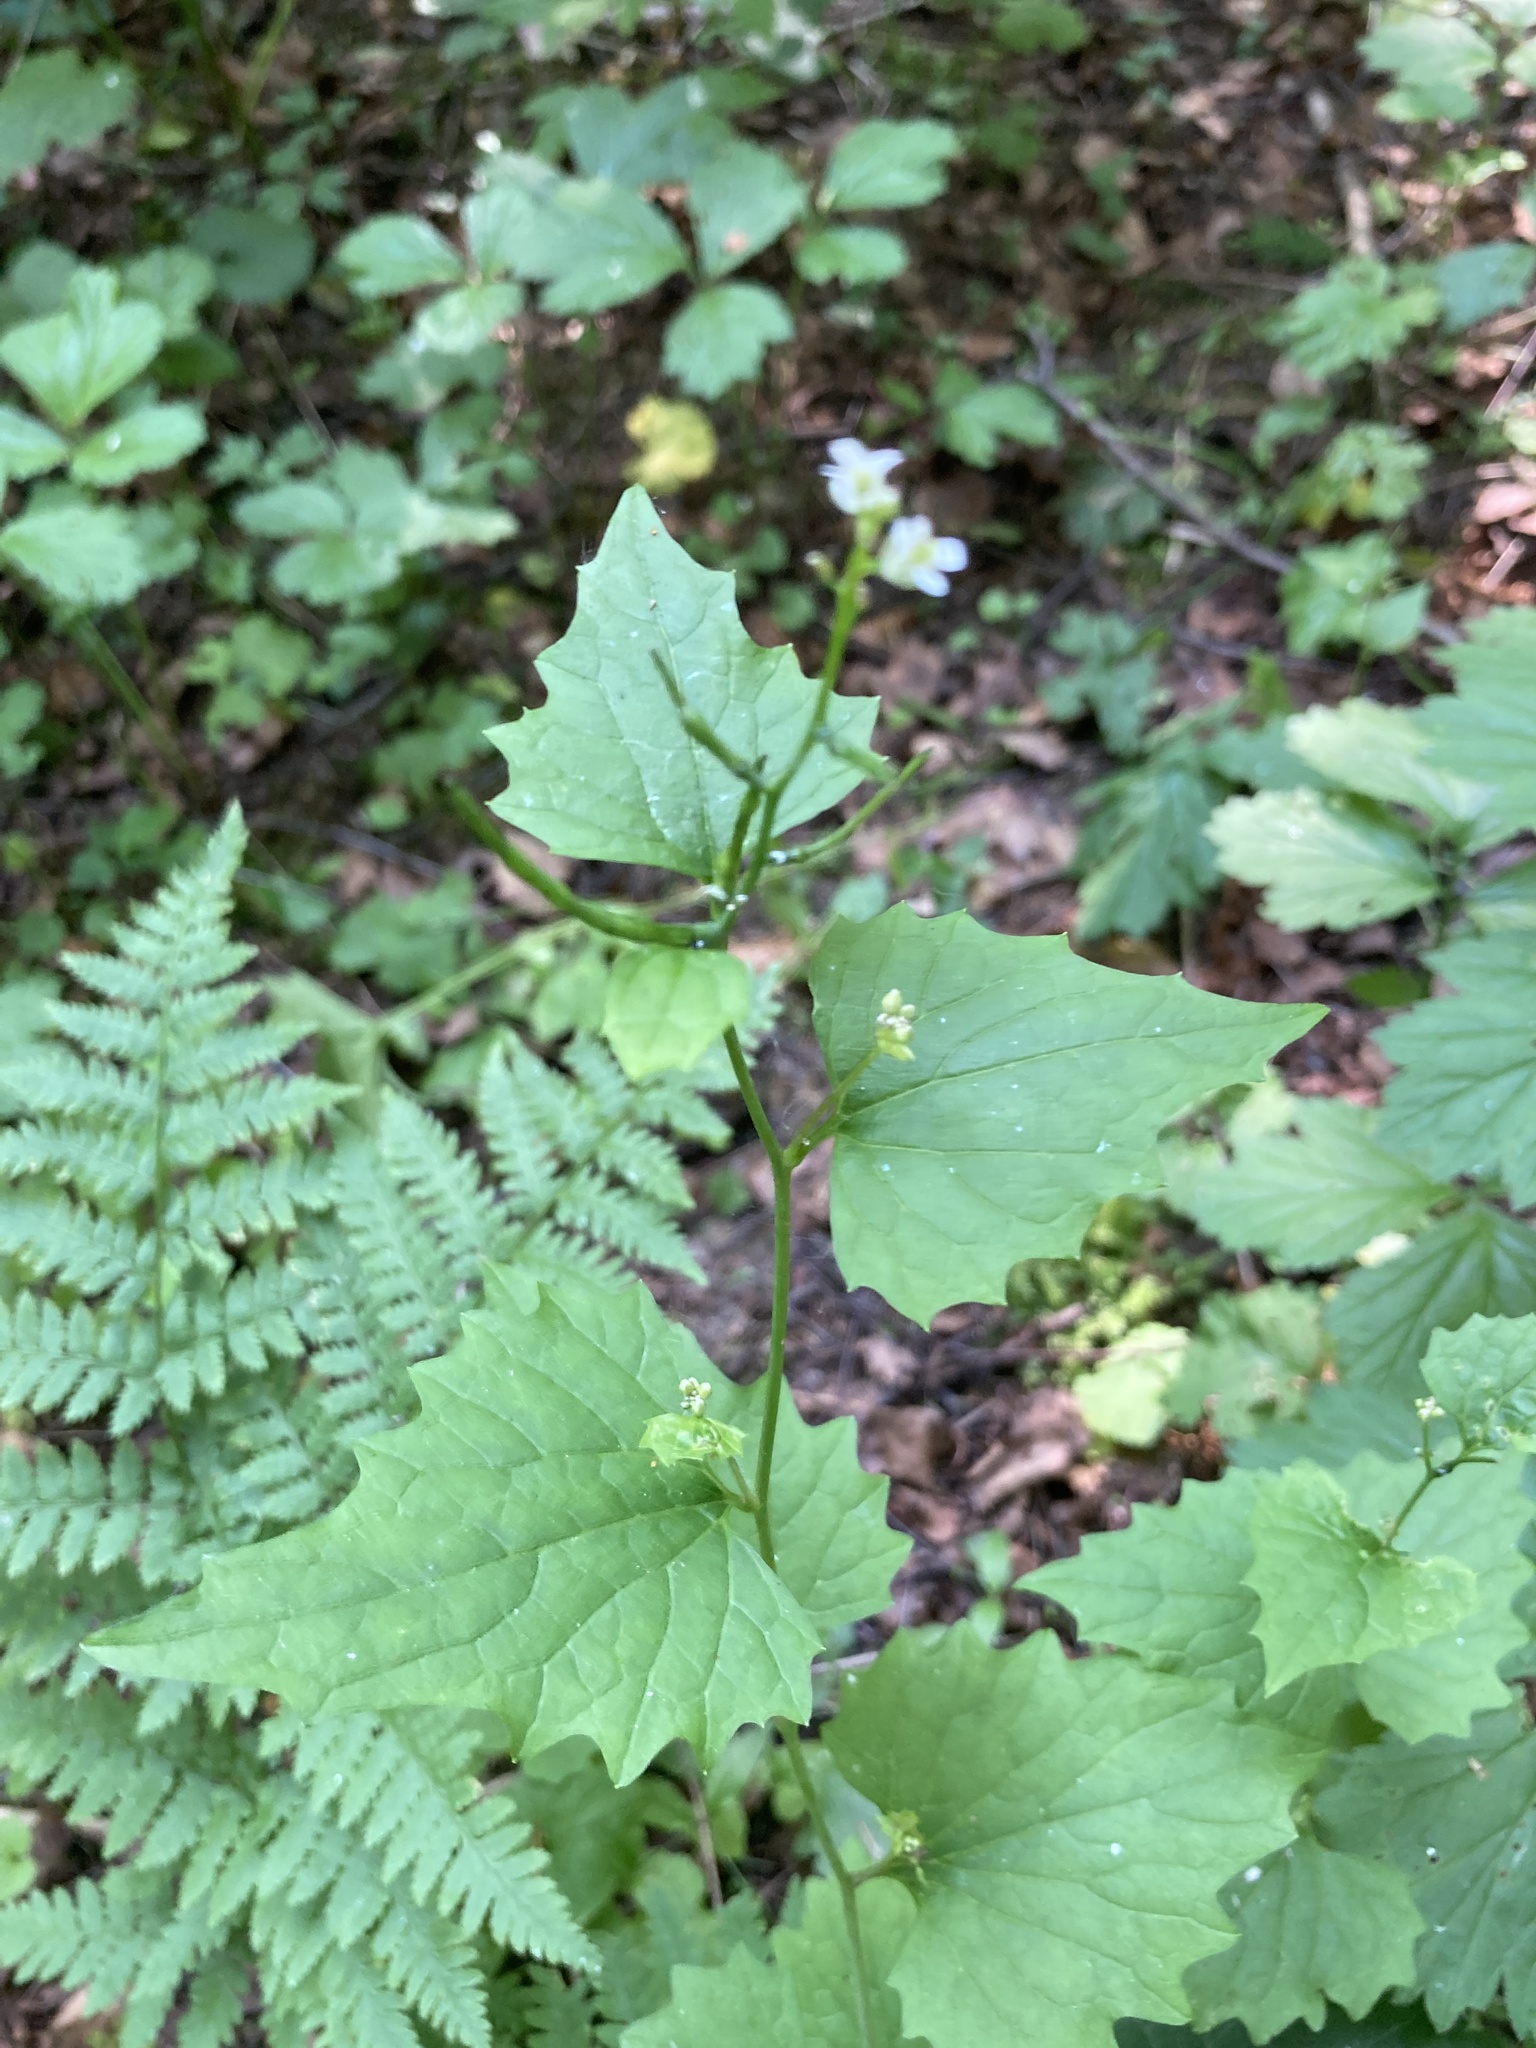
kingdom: Plantae
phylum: Tracheophyta
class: Magnoliopsida
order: Brassicales
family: Brassicaceae
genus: Alliaria
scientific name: Alliaria petiolata
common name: Garlic mustard
